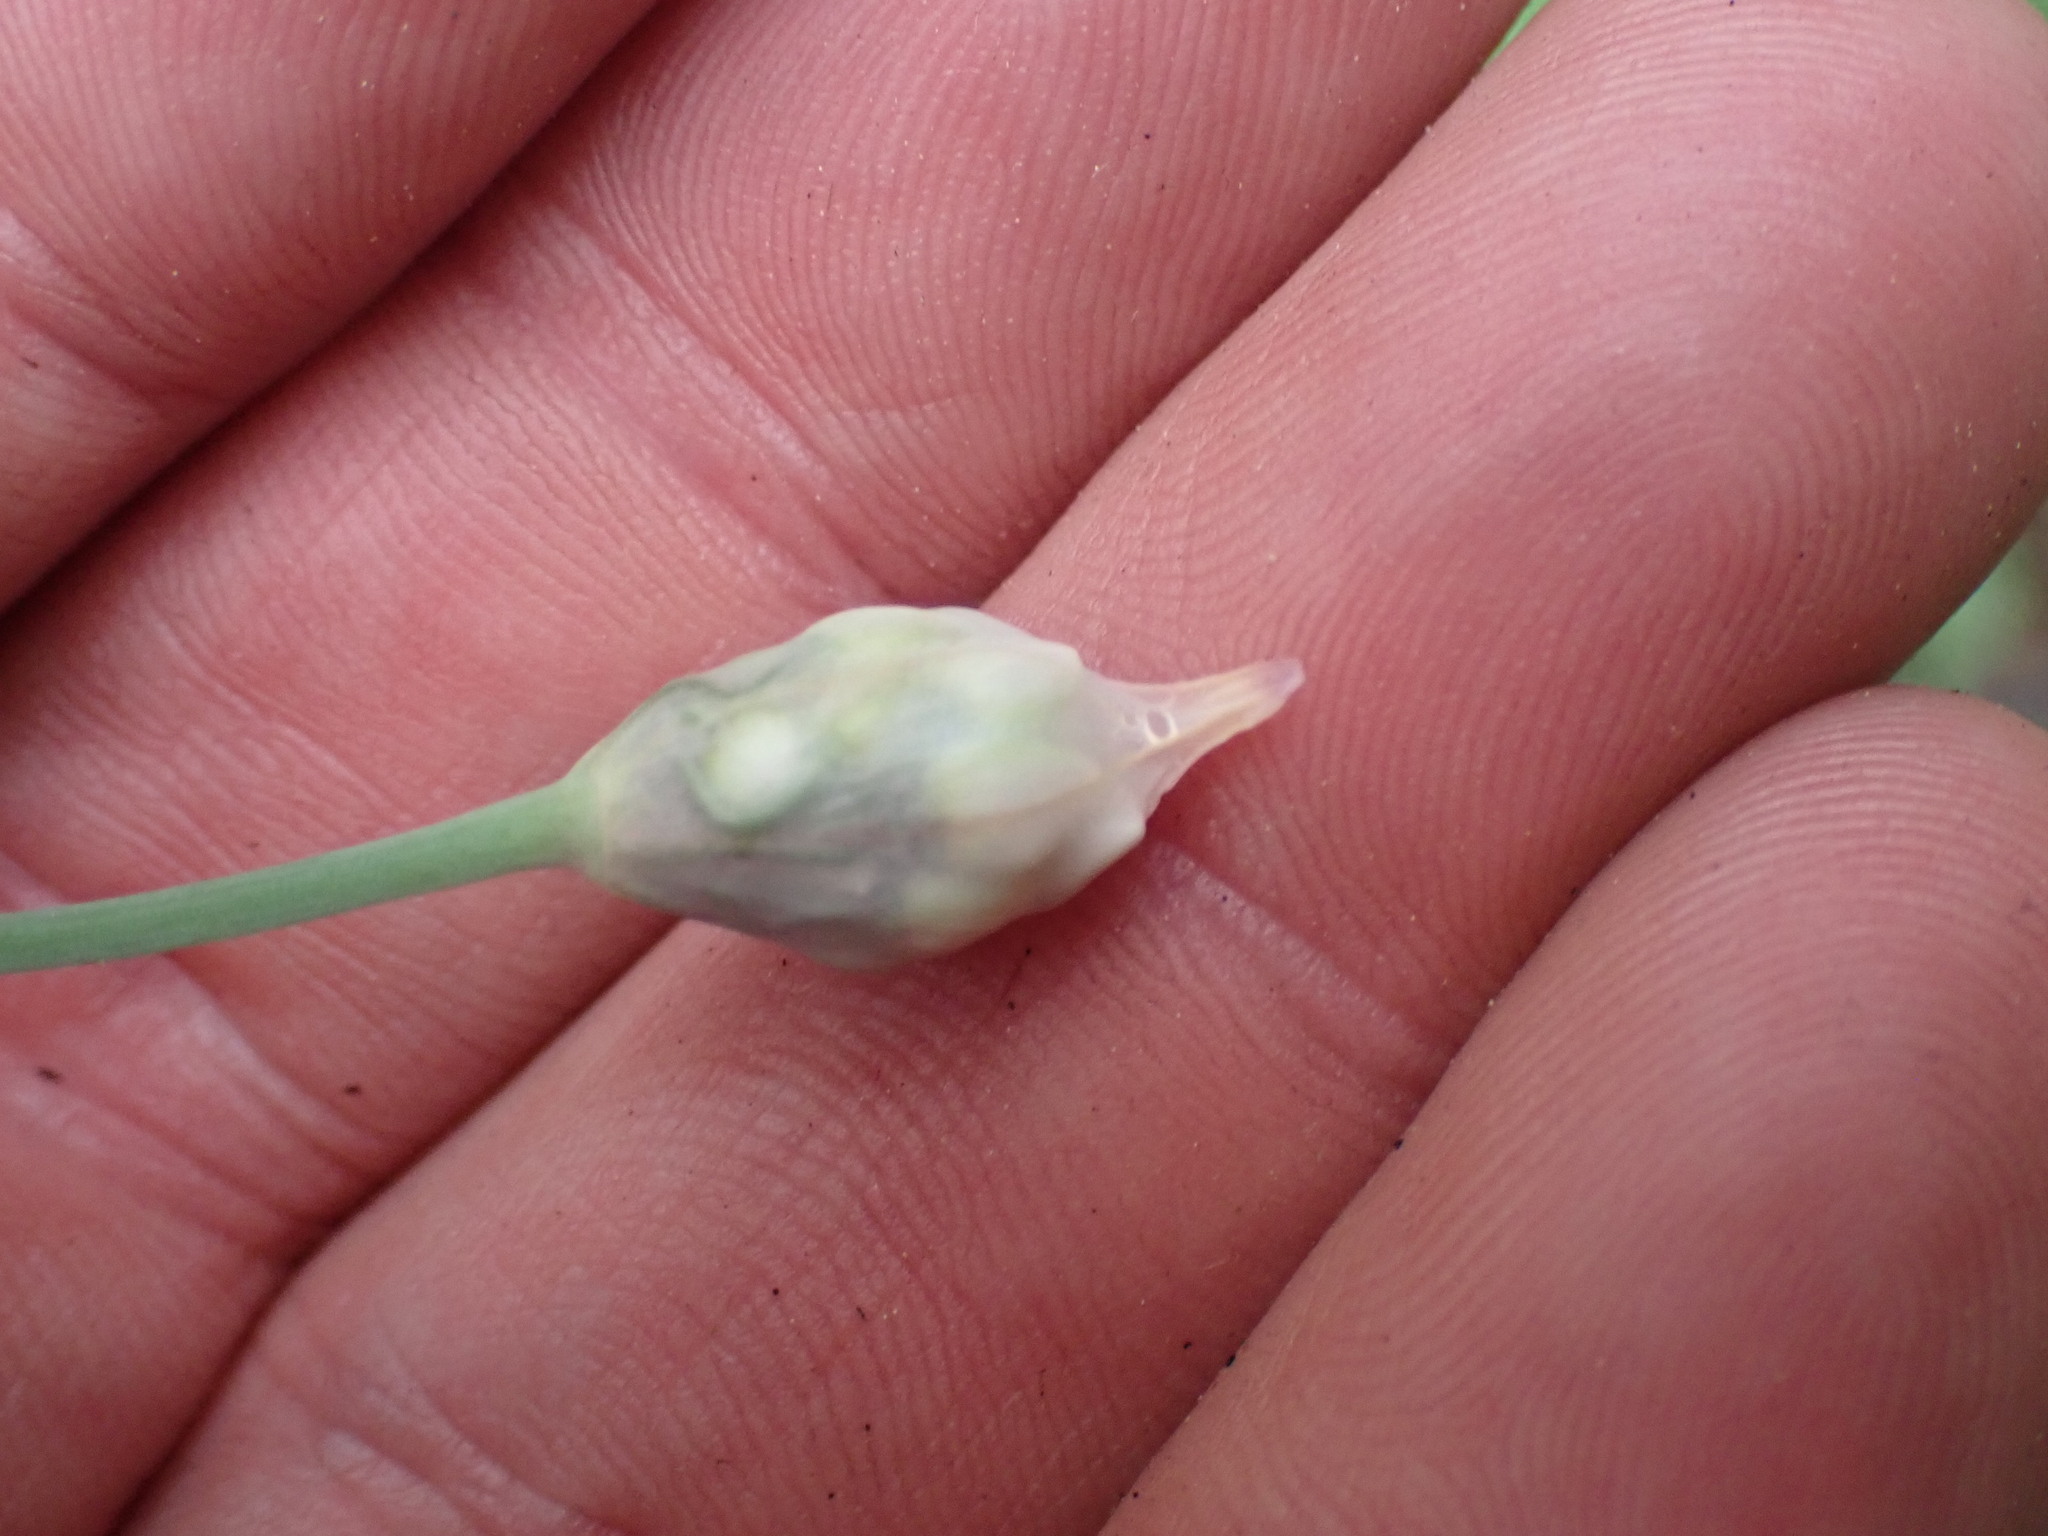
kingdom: Plantae
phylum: Tracheophyta
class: Liliopsida
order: Asparagales
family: Amaryllidaceae
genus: Allium
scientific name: Allium cernuum
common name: Nodding onion
